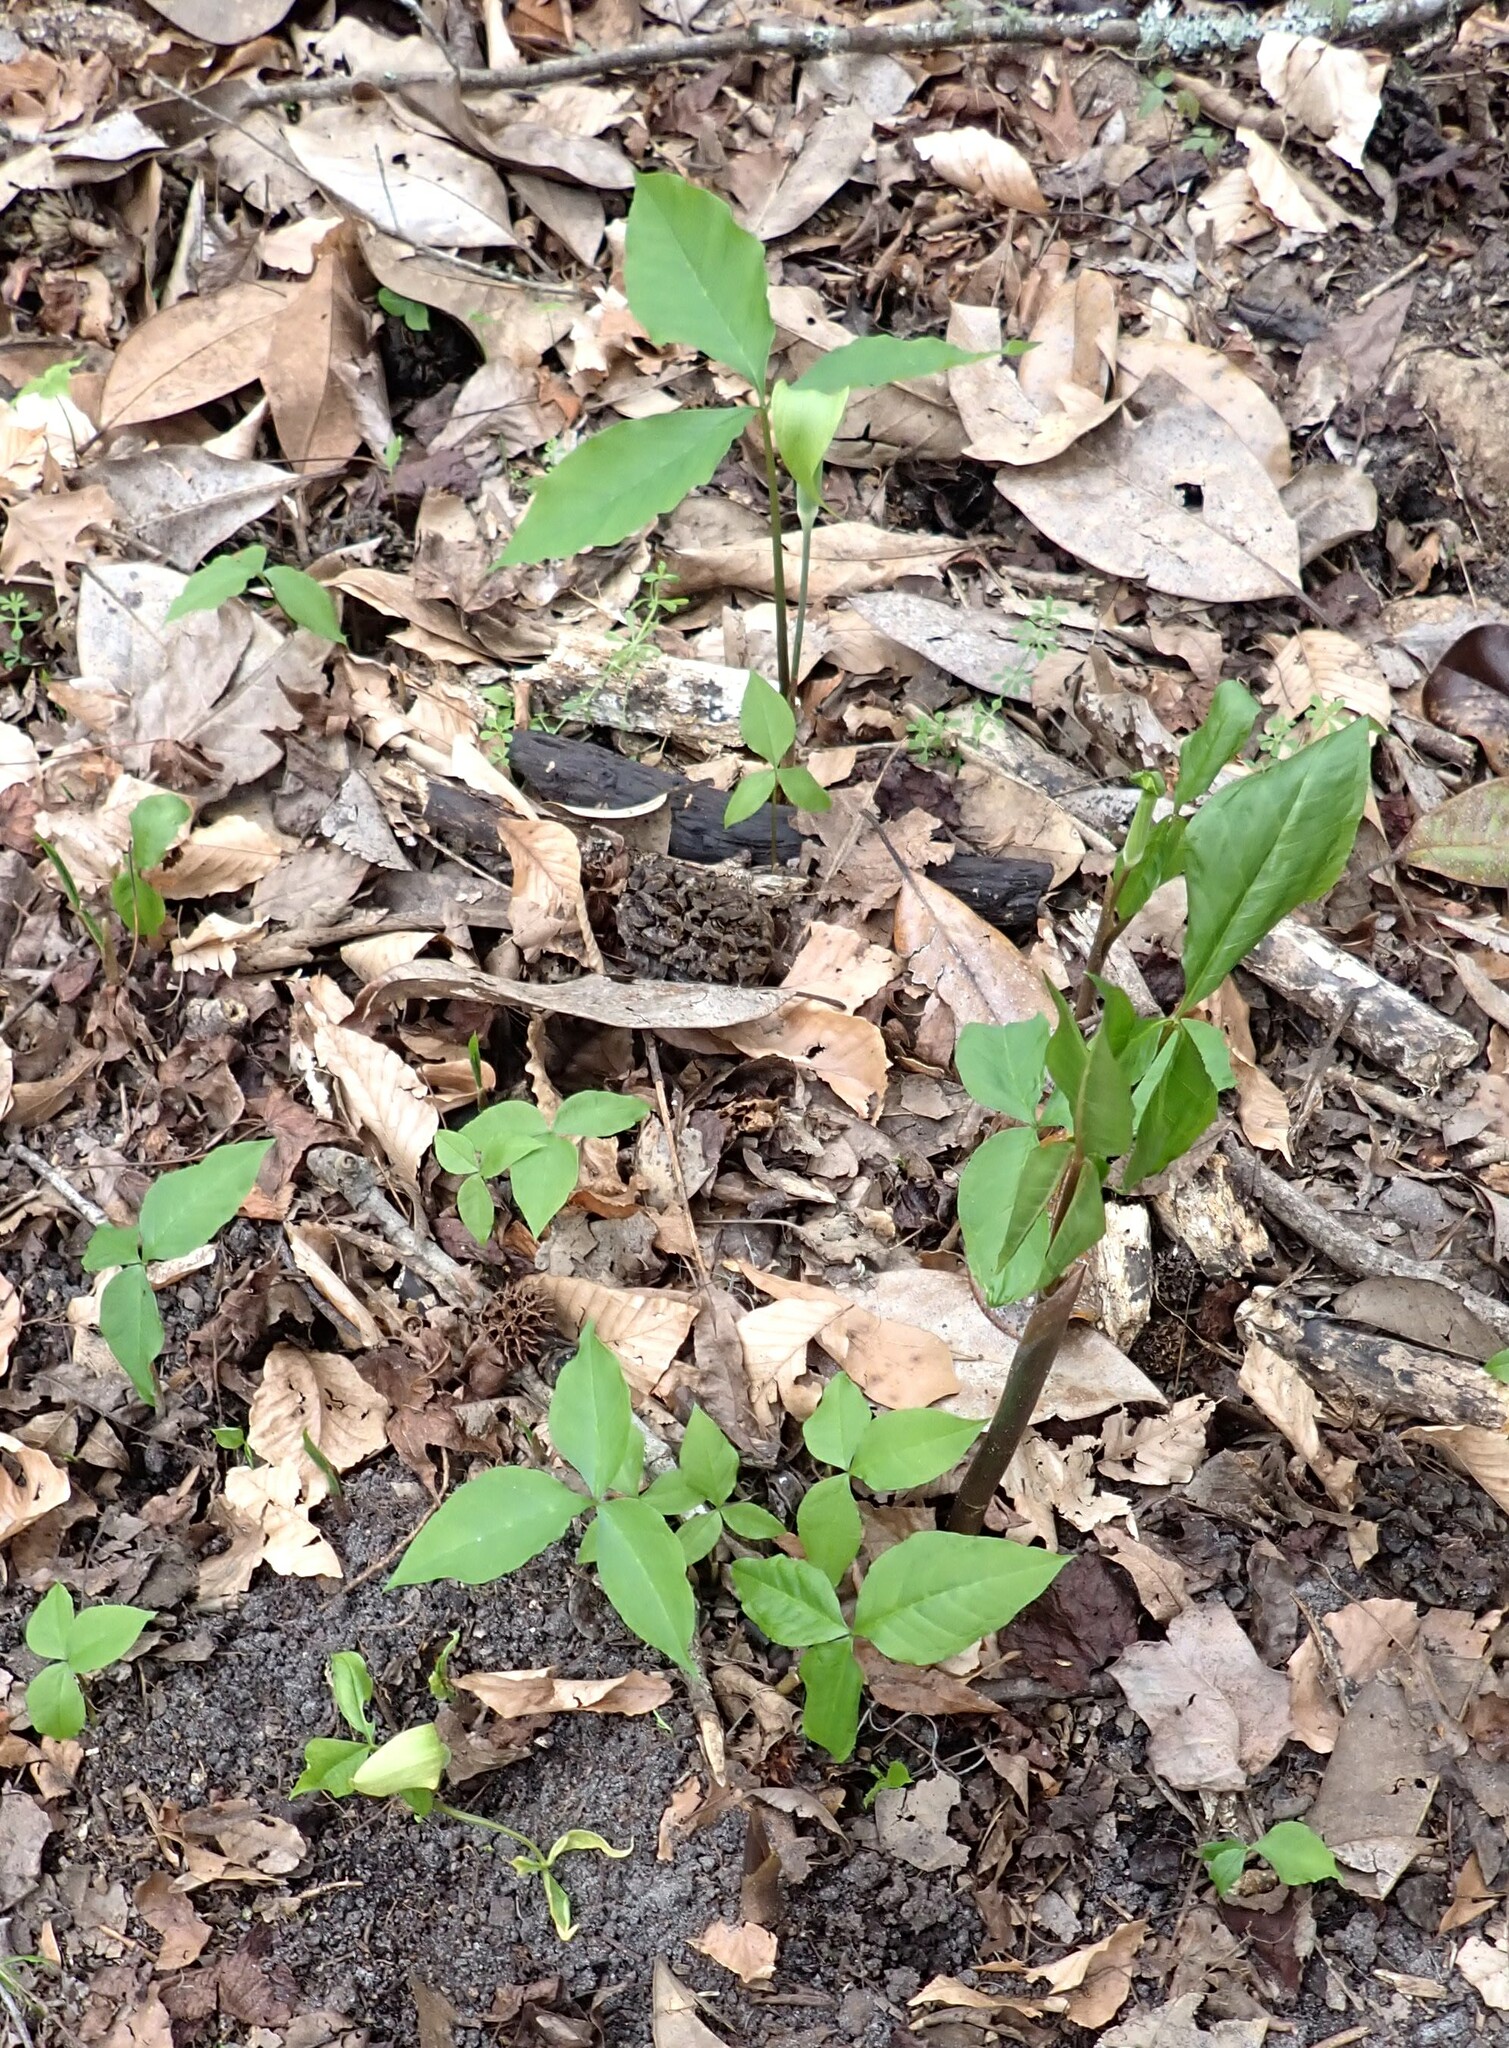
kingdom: Plantae
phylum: Tracheophyta
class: Liliopsida
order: Alismatales
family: Araceae
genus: Arisaema
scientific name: Arisaema acuminatum
